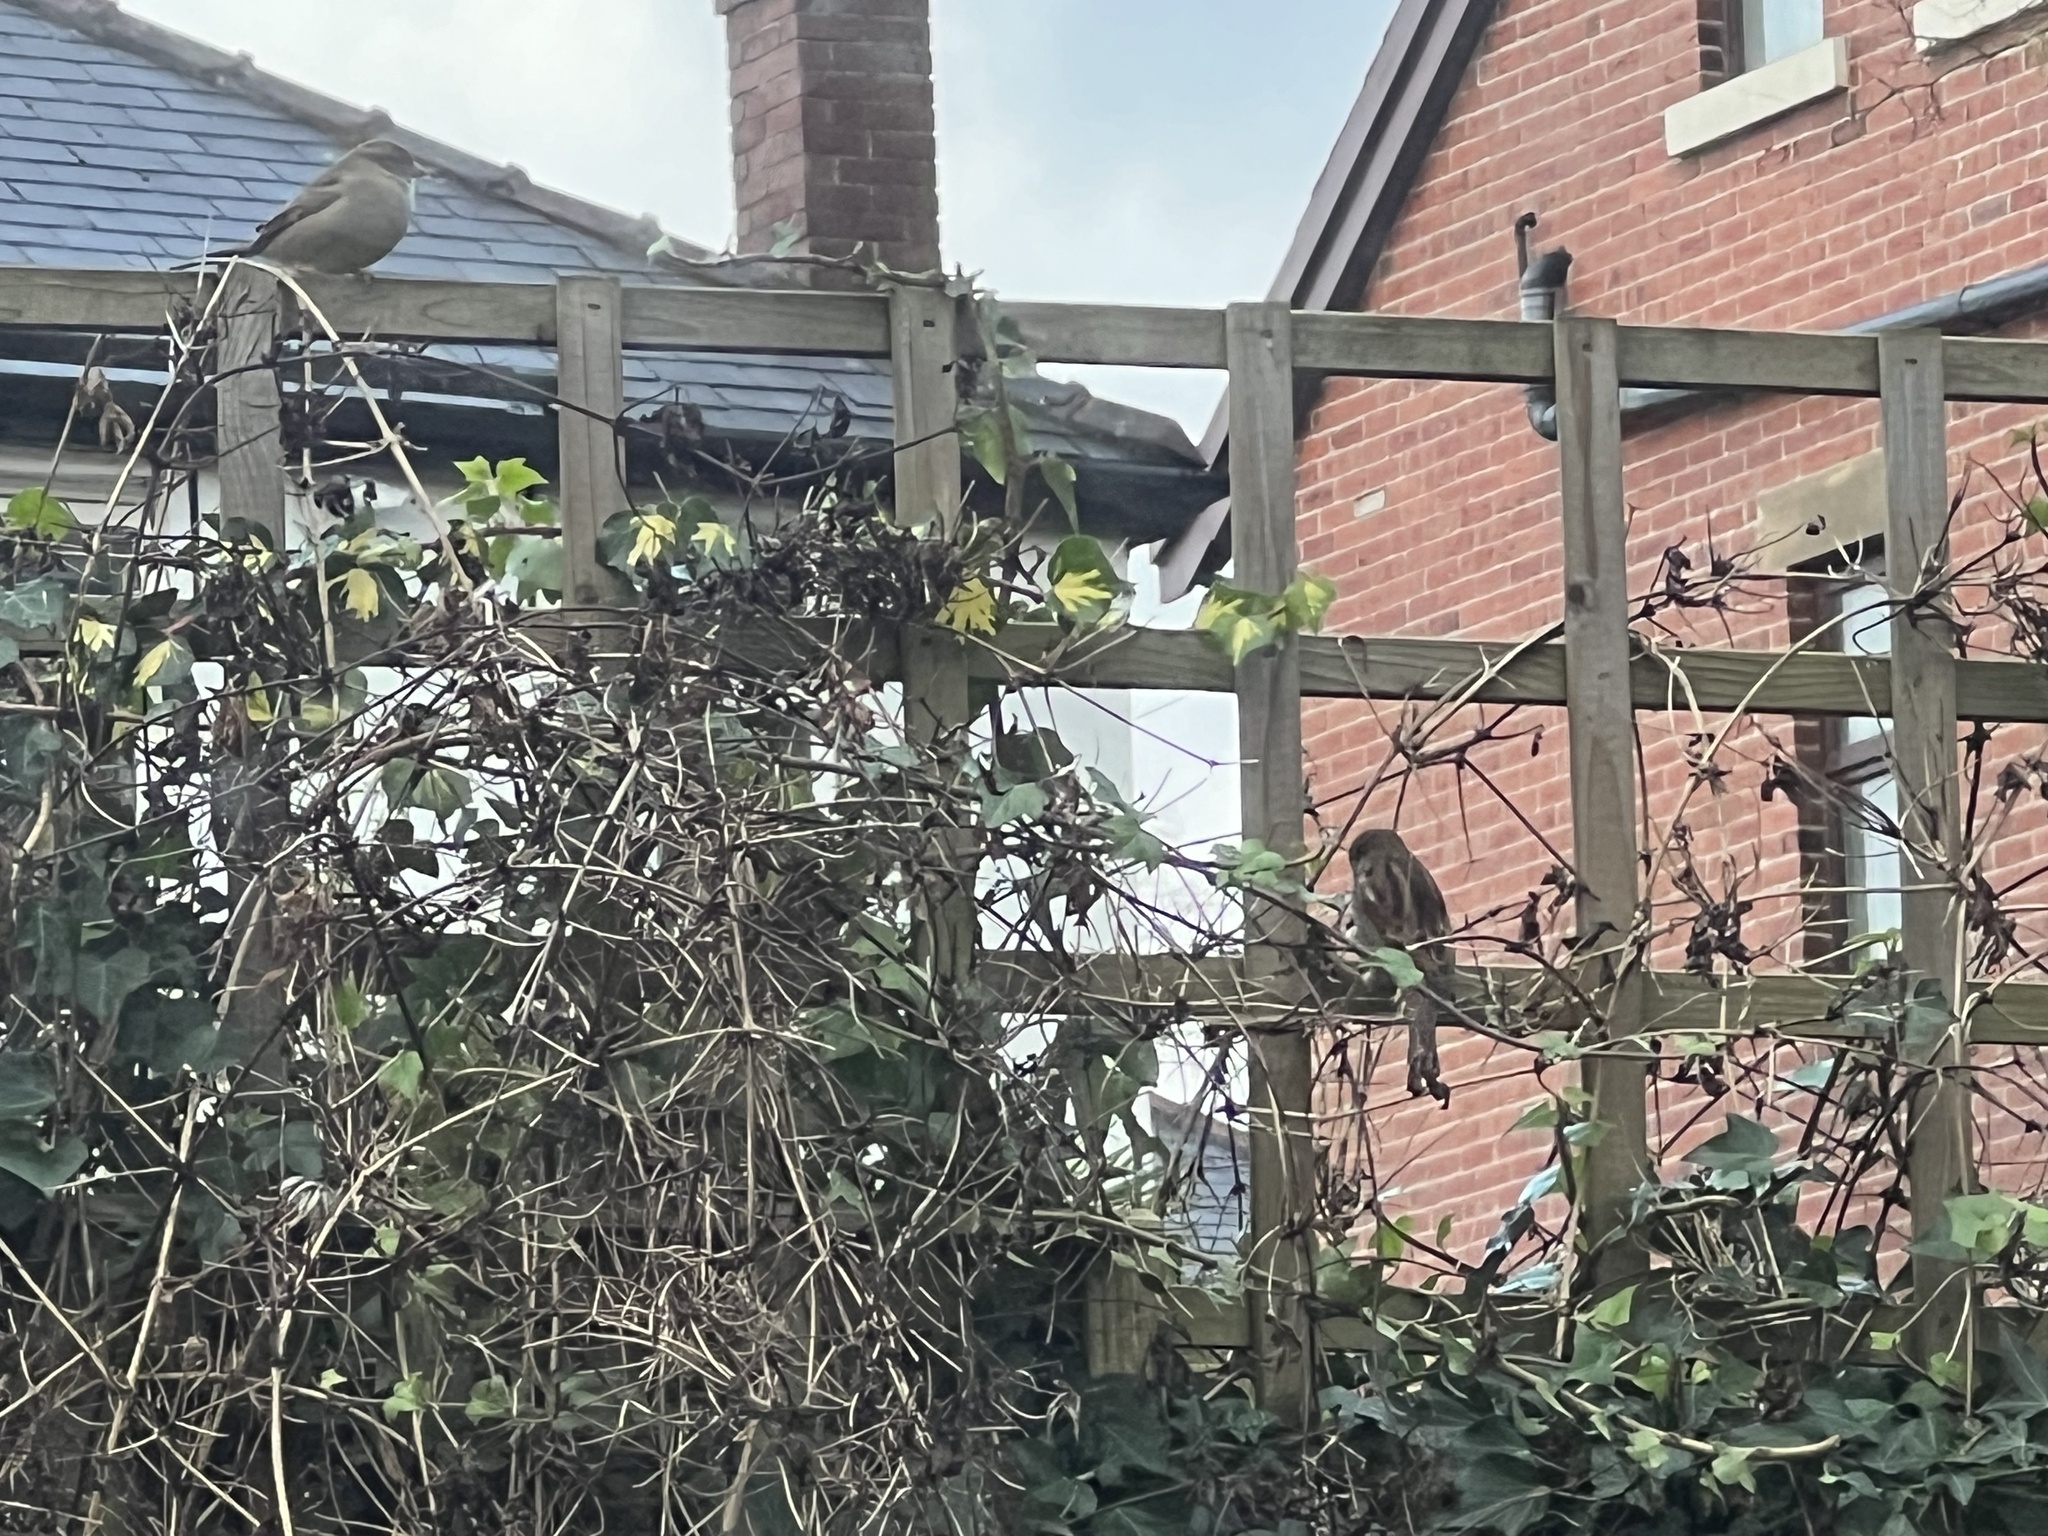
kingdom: Animalia
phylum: Chordata
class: Aves
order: Passeriformes
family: Passeridae
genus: Passer
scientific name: Passer domesticus
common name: House sparrow
